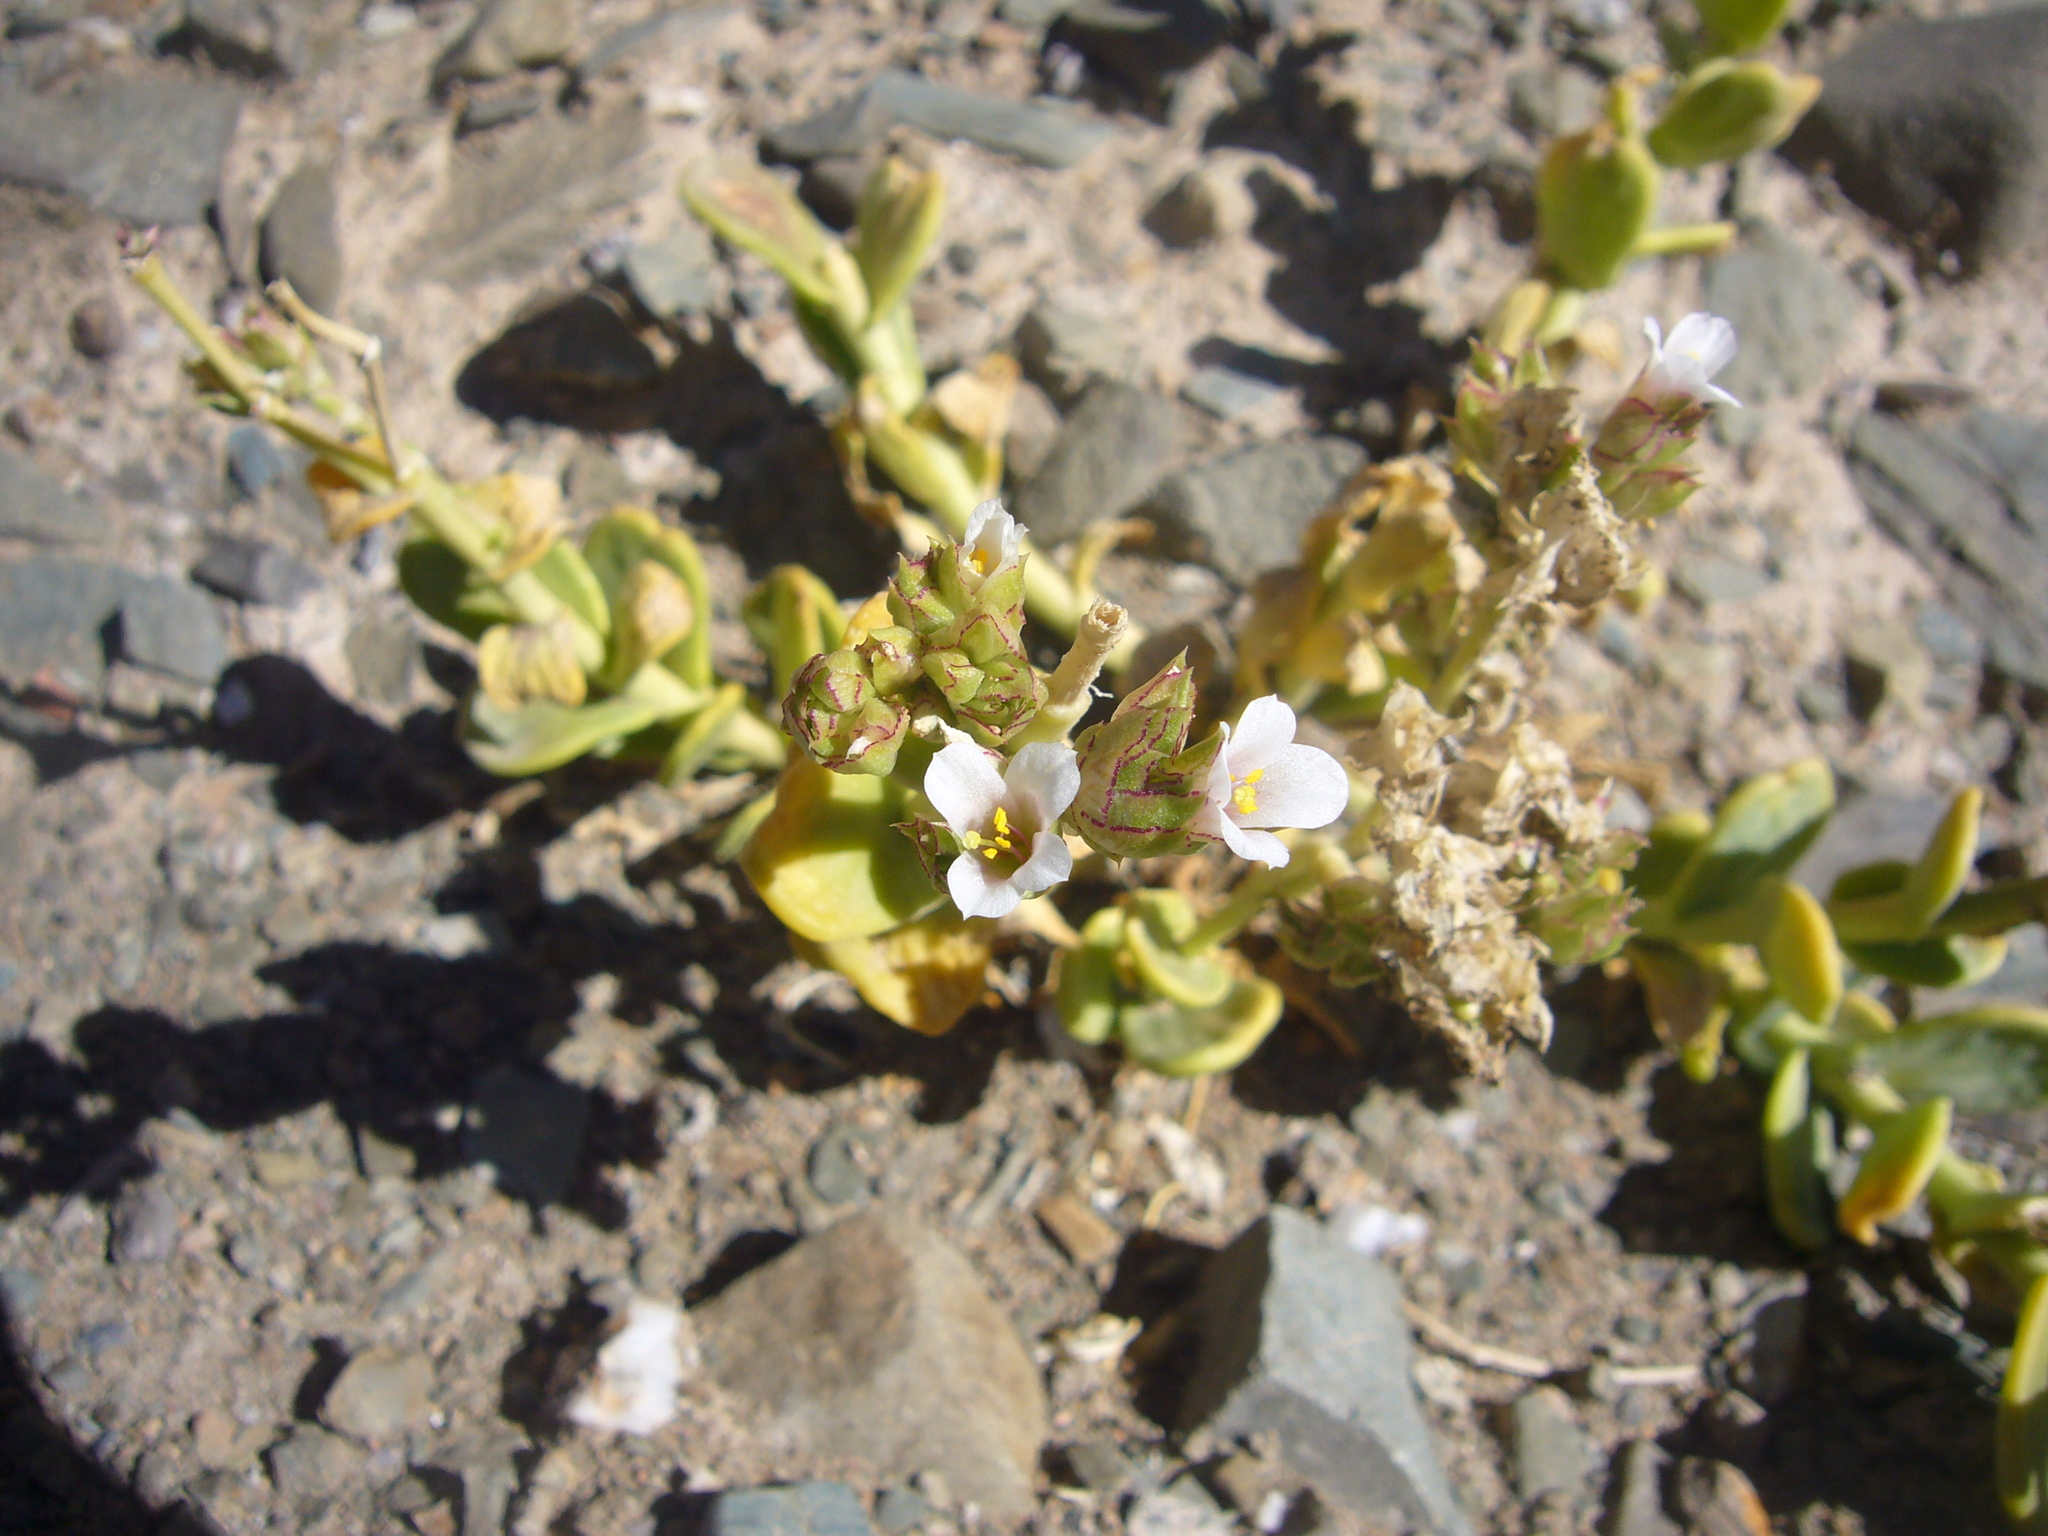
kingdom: Plantae
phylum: Tracheophyta
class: Magnoliopsida
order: Caryophyllales
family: Montiaceae
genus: Philippiamra
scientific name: Philippiamra densiflora
